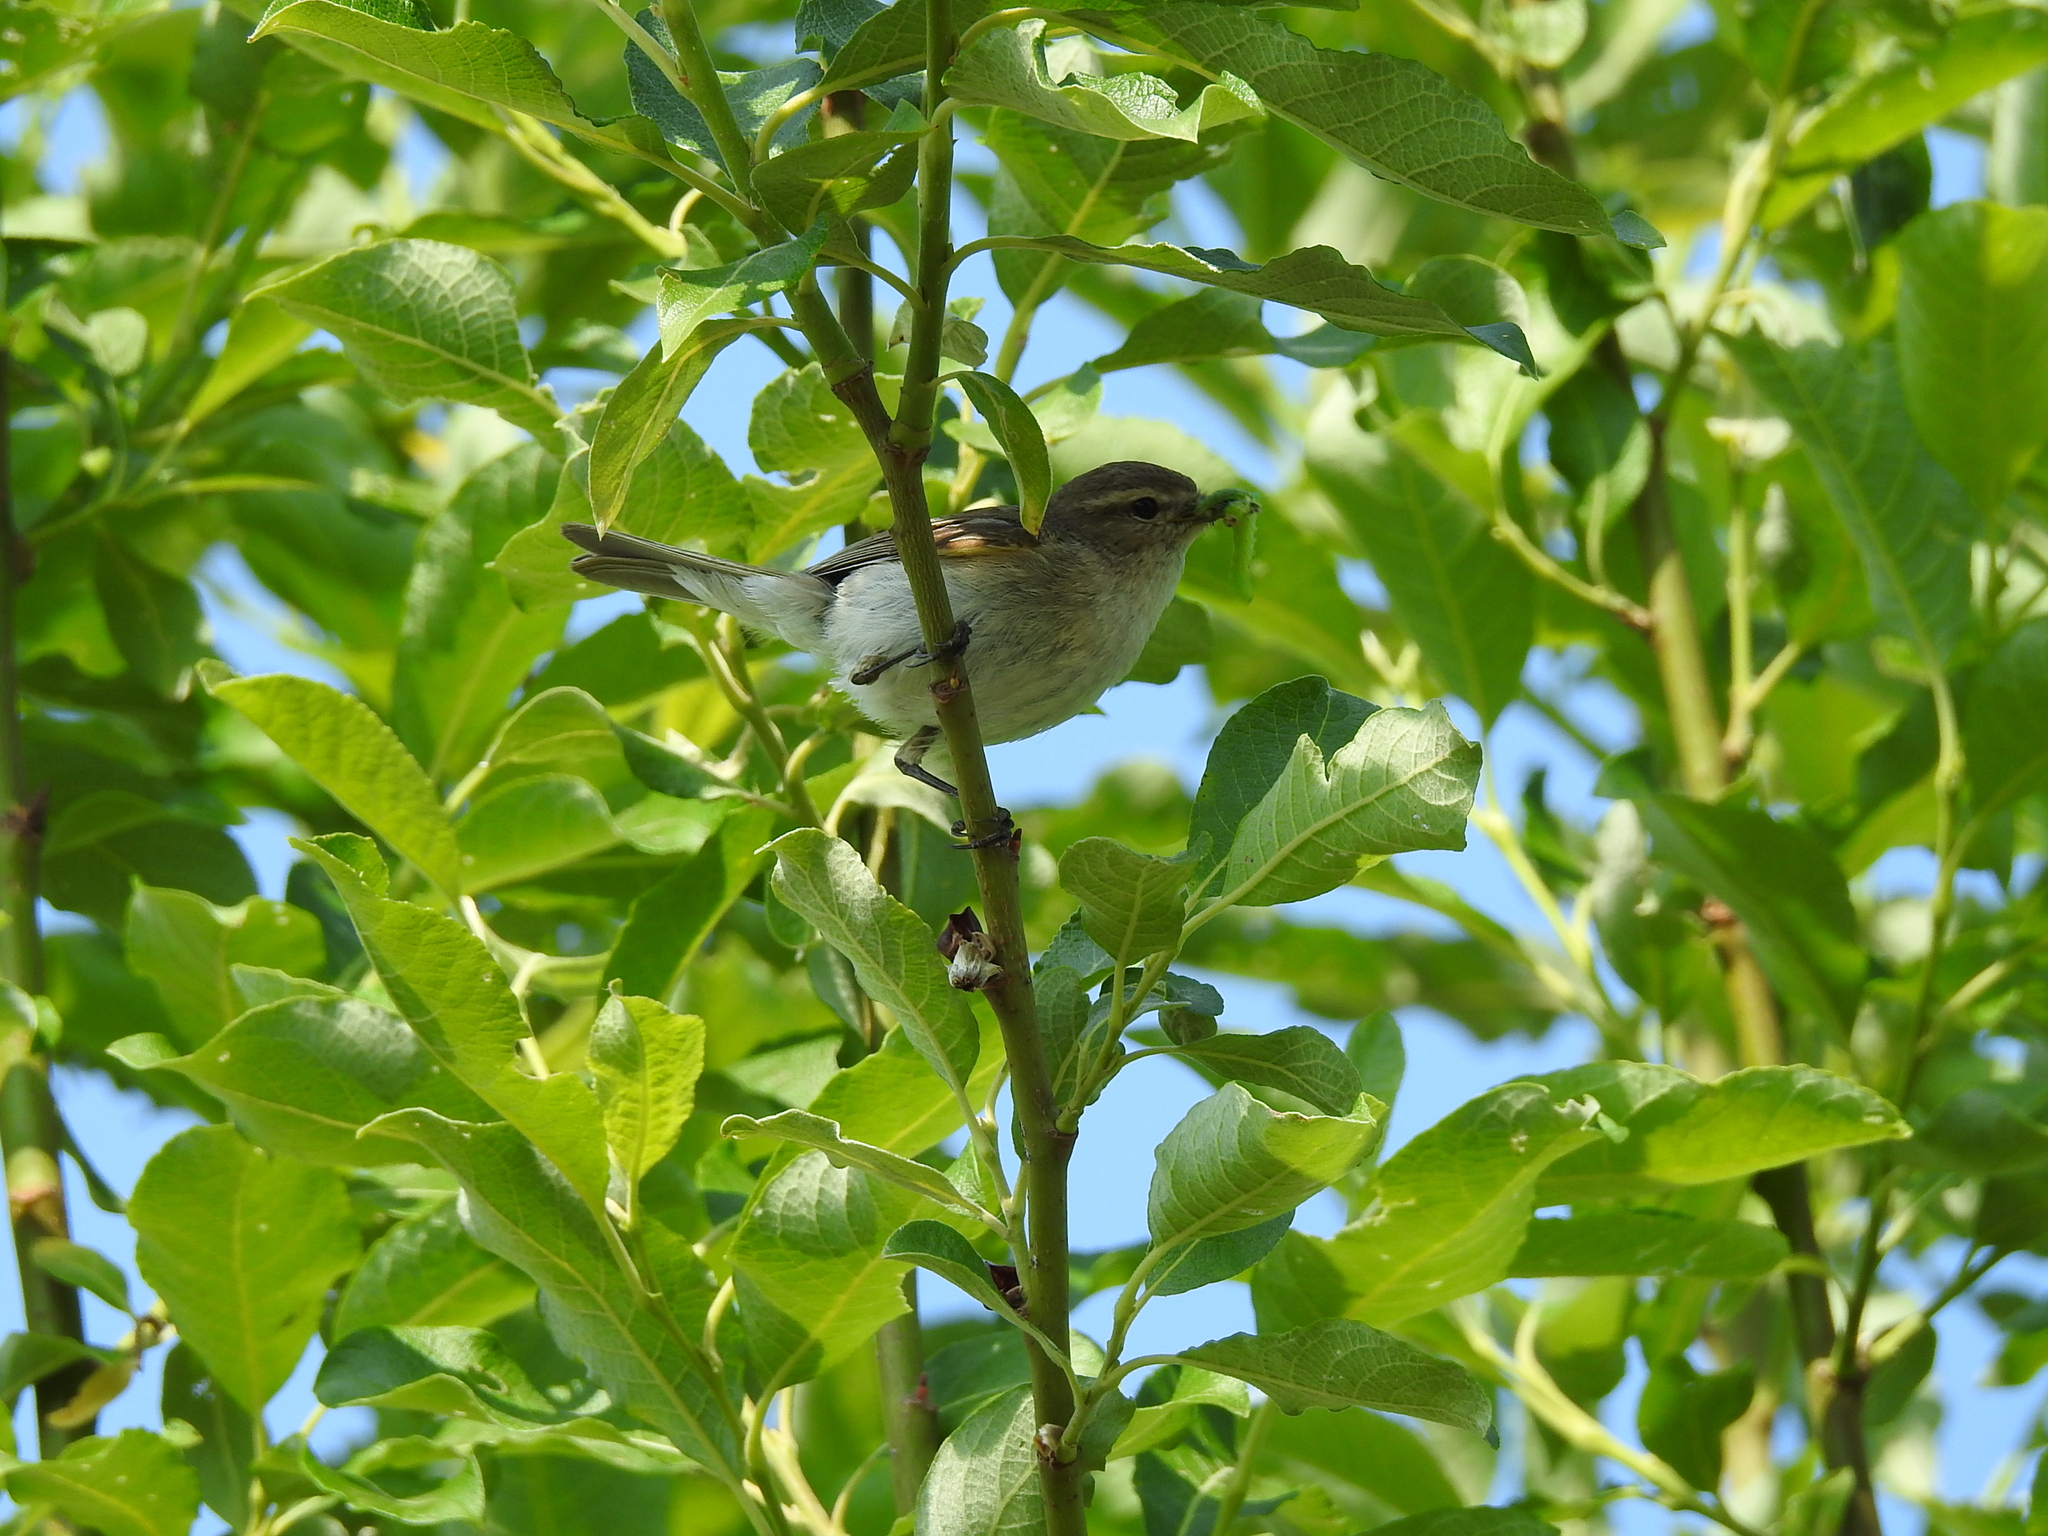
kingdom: Animalia
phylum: Chordata
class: Aves
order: Passeriformes
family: Phylloscopidae
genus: Phylloscopus
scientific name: Phylloscopus collybita
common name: Common chiffchaff
